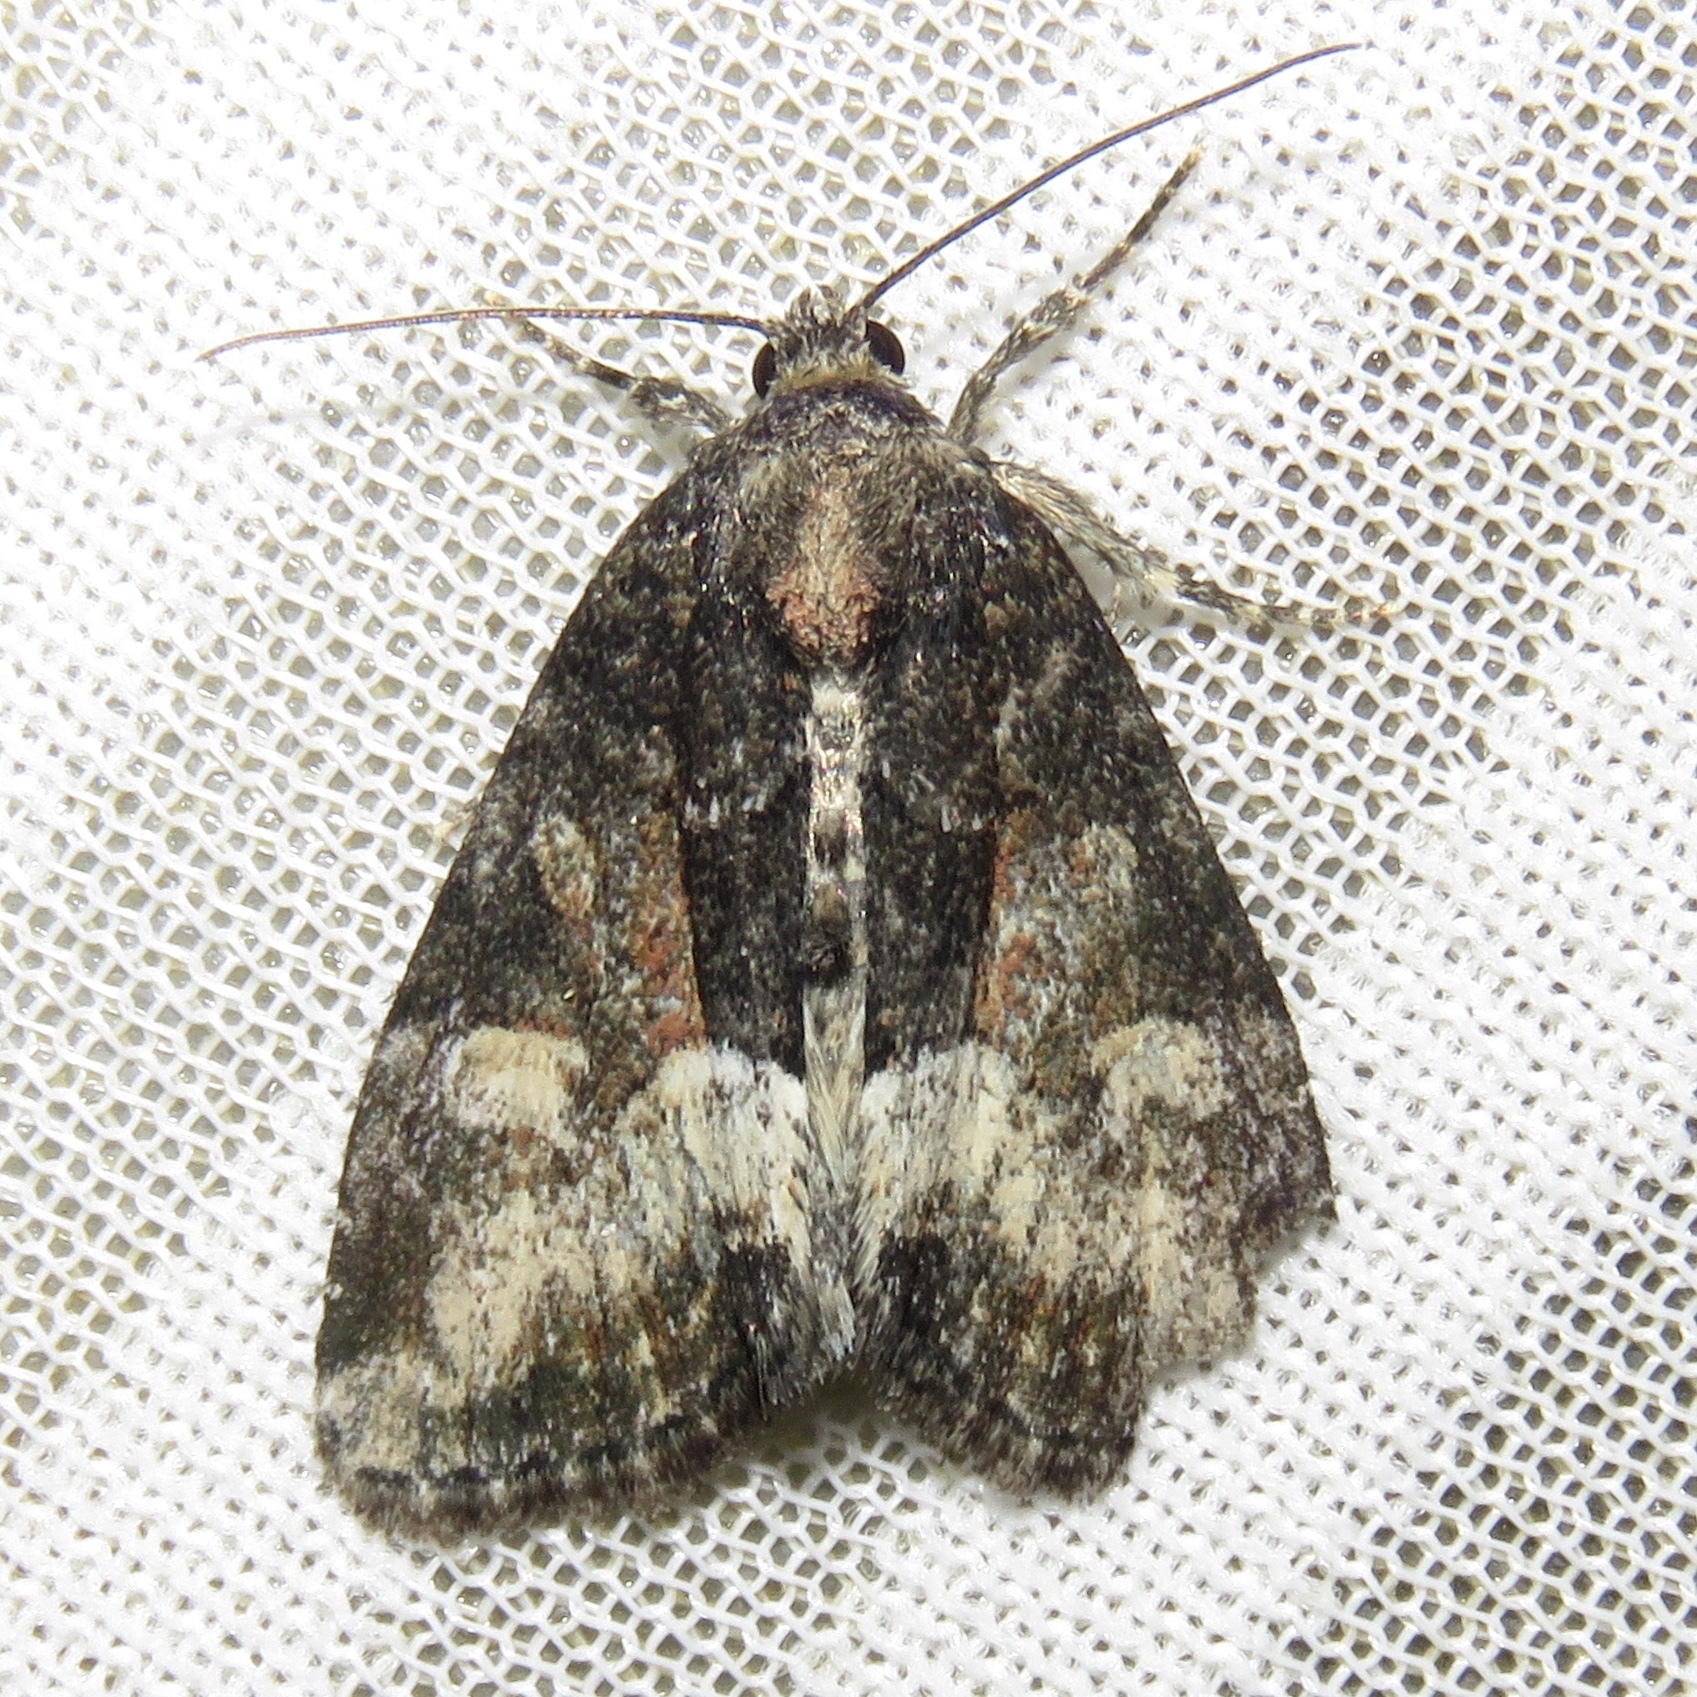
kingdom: Animalia
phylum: Arthropoda
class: Insecta
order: Lepidoptera
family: Noctuidae
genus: Neoligia
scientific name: Neoligia subjuncta
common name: Connected brocade
